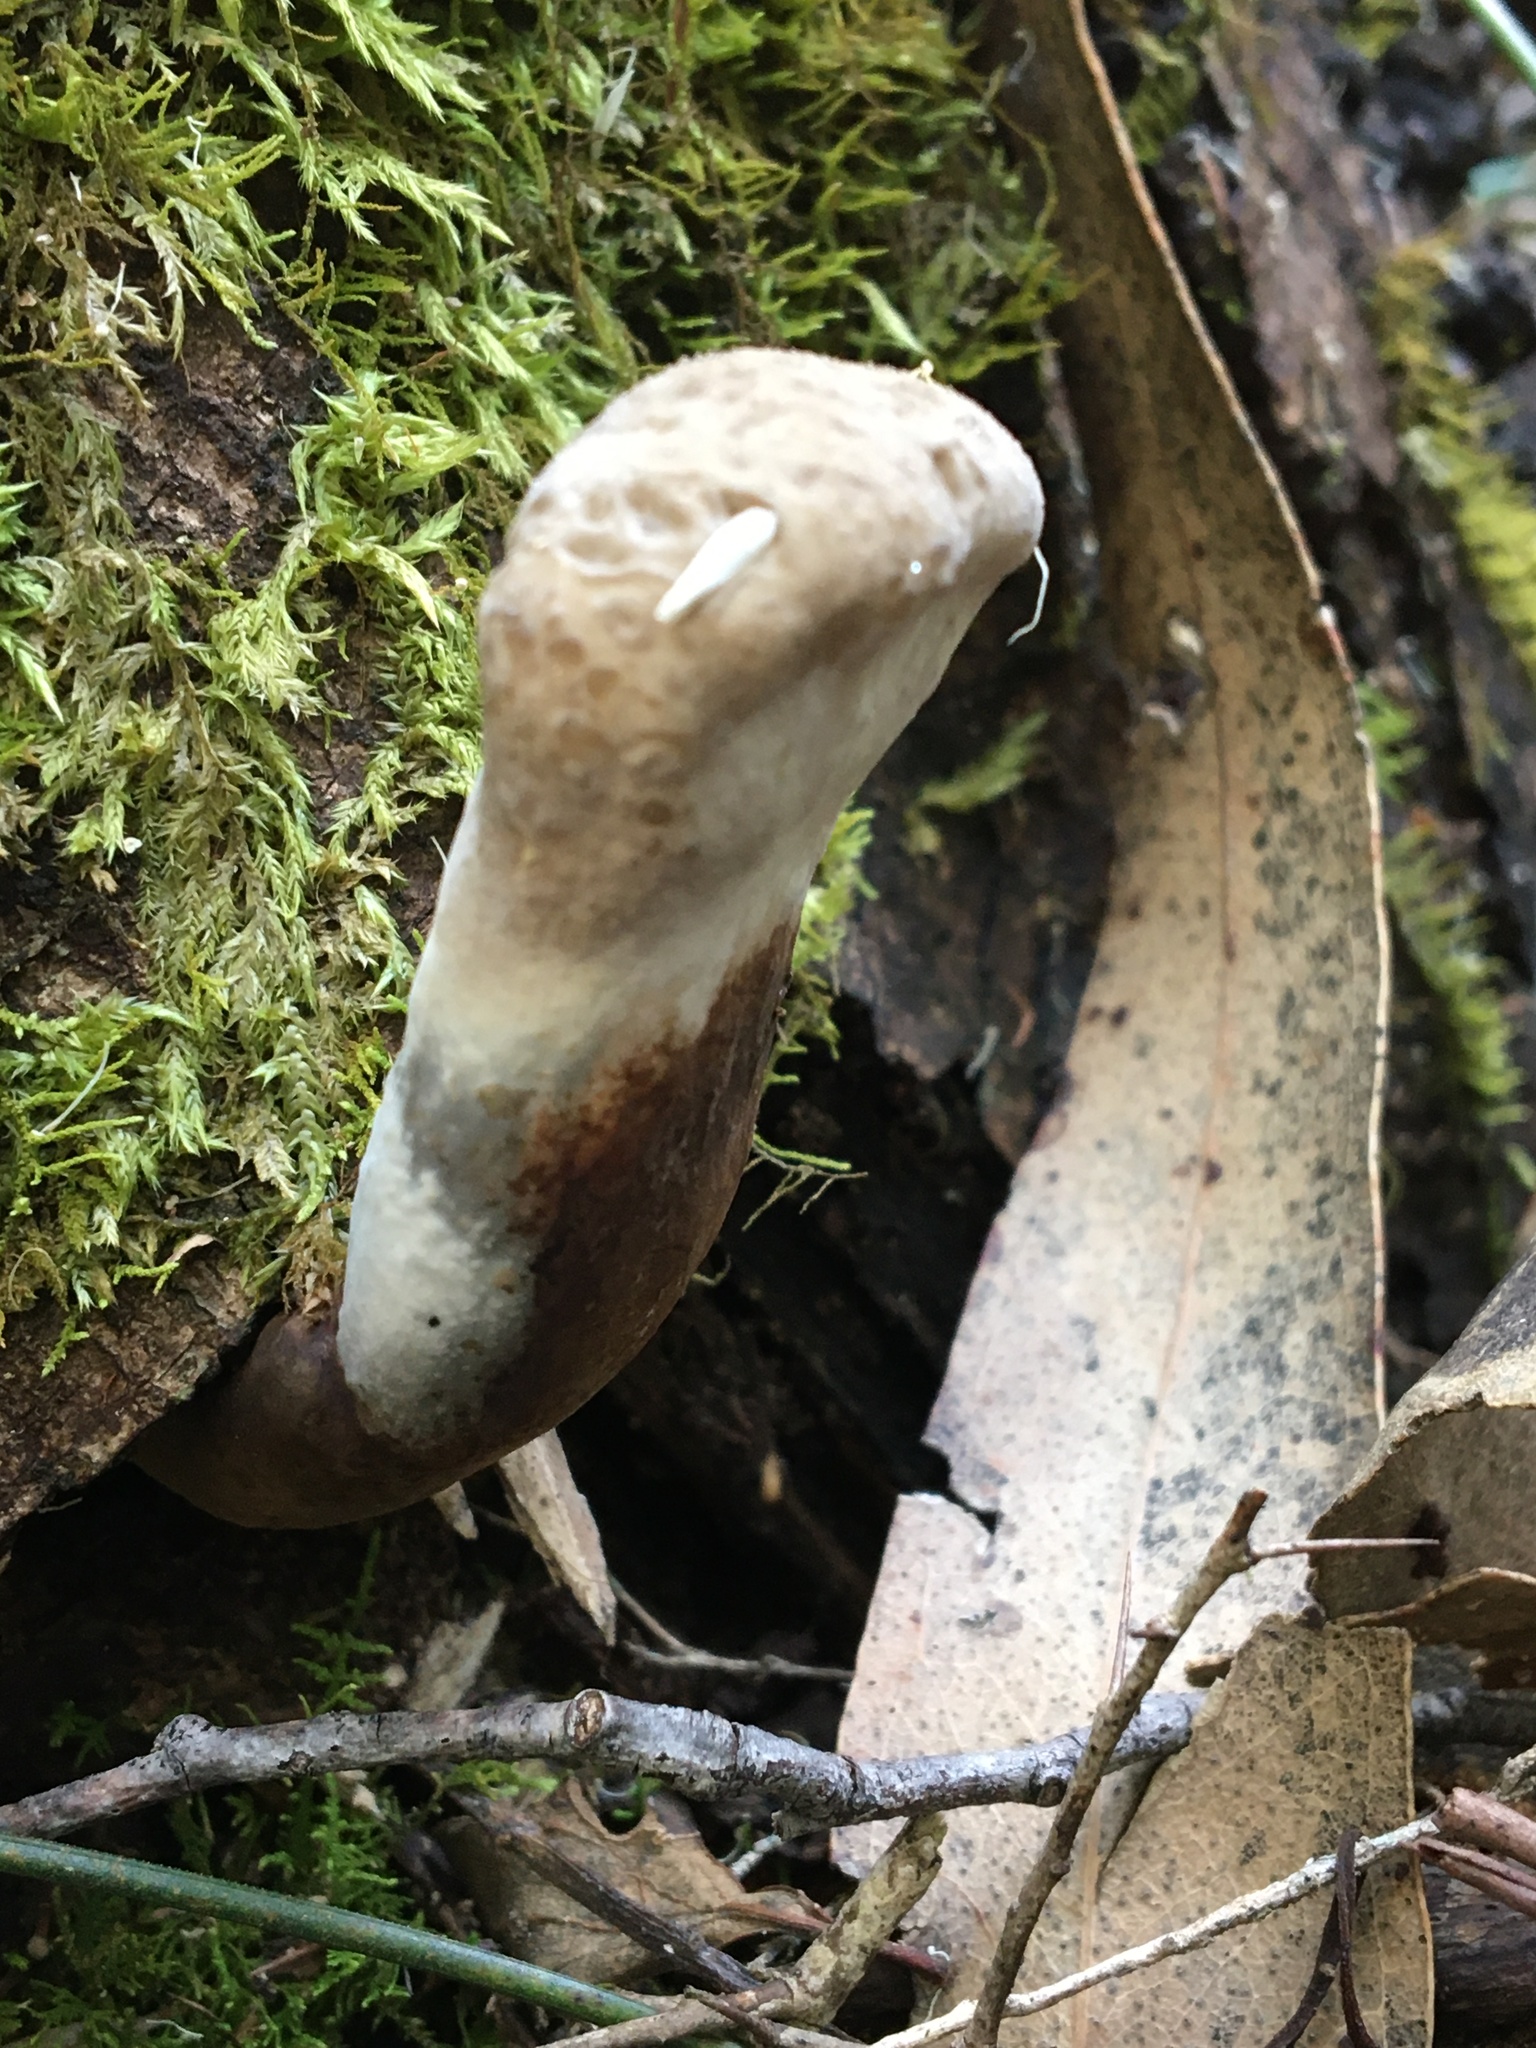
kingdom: Fungi
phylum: Basidiomycota
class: Agaricomycetes
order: Polyporales
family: Ganodermataceae
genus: Sanguinoderma
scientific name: Sanguinoderma rude
